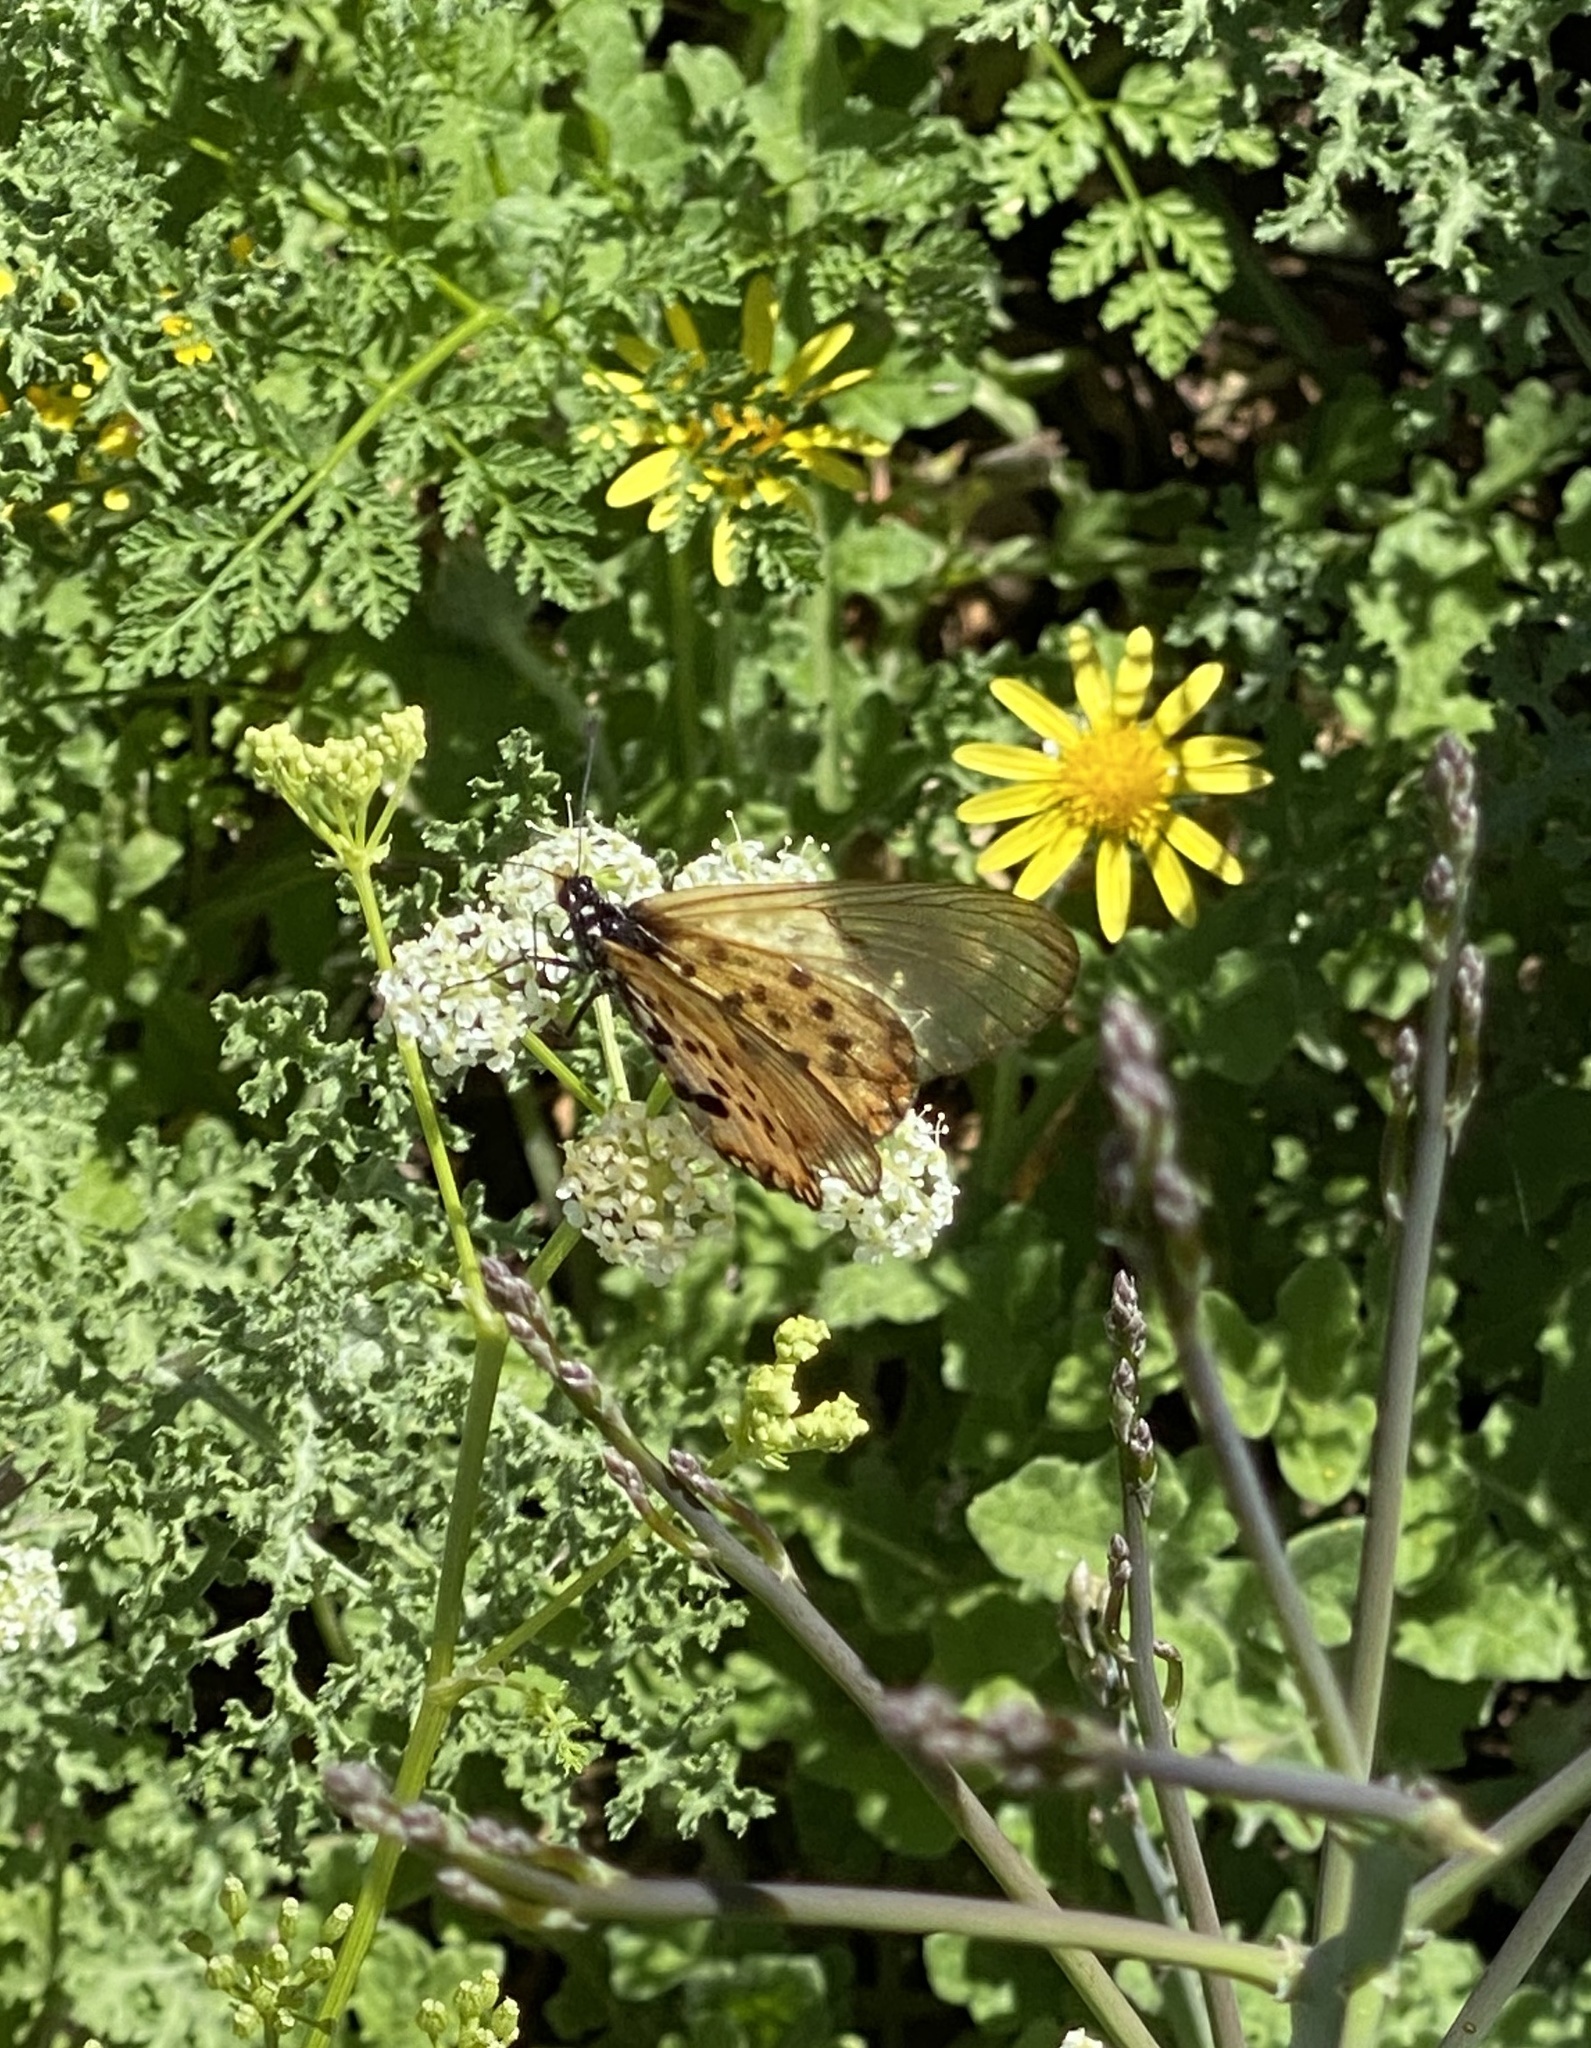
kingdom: Animalia
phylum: Arthropoda
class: Insecta
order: Lepidoptera
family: Nymphalidae
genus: Acraea
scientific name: Acraea horta
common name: Garden acraea
